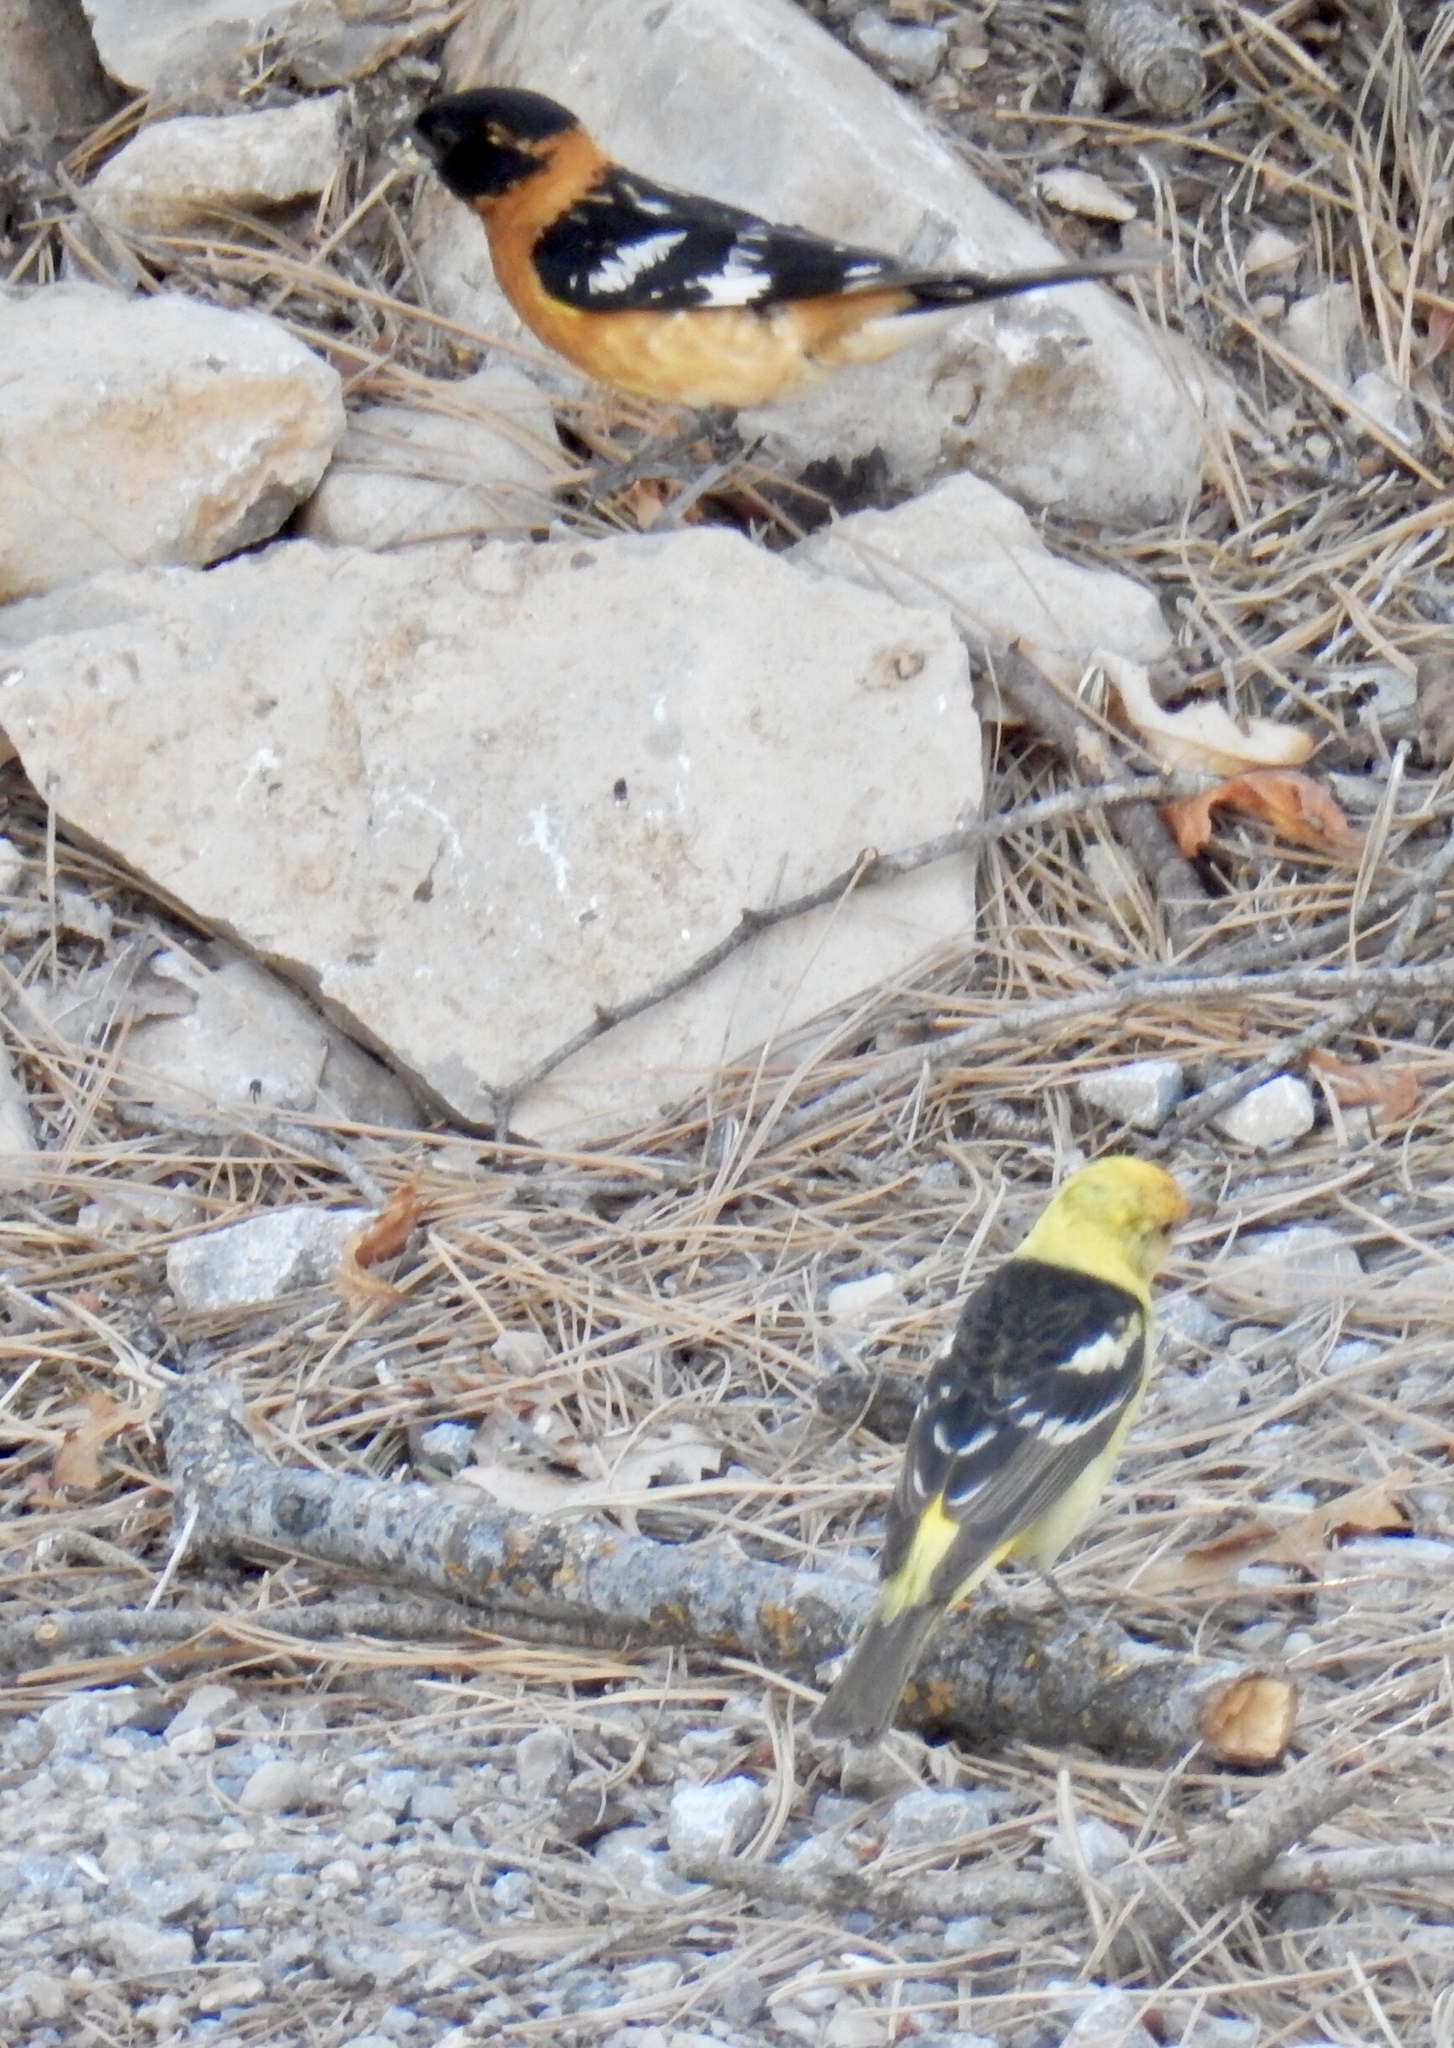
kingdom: Animalia
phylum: Chordata
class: Aves
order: Passeriformes
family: Cardinalidae
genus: Piranga
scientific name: Piranga ludoviciana
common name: Western tanager
